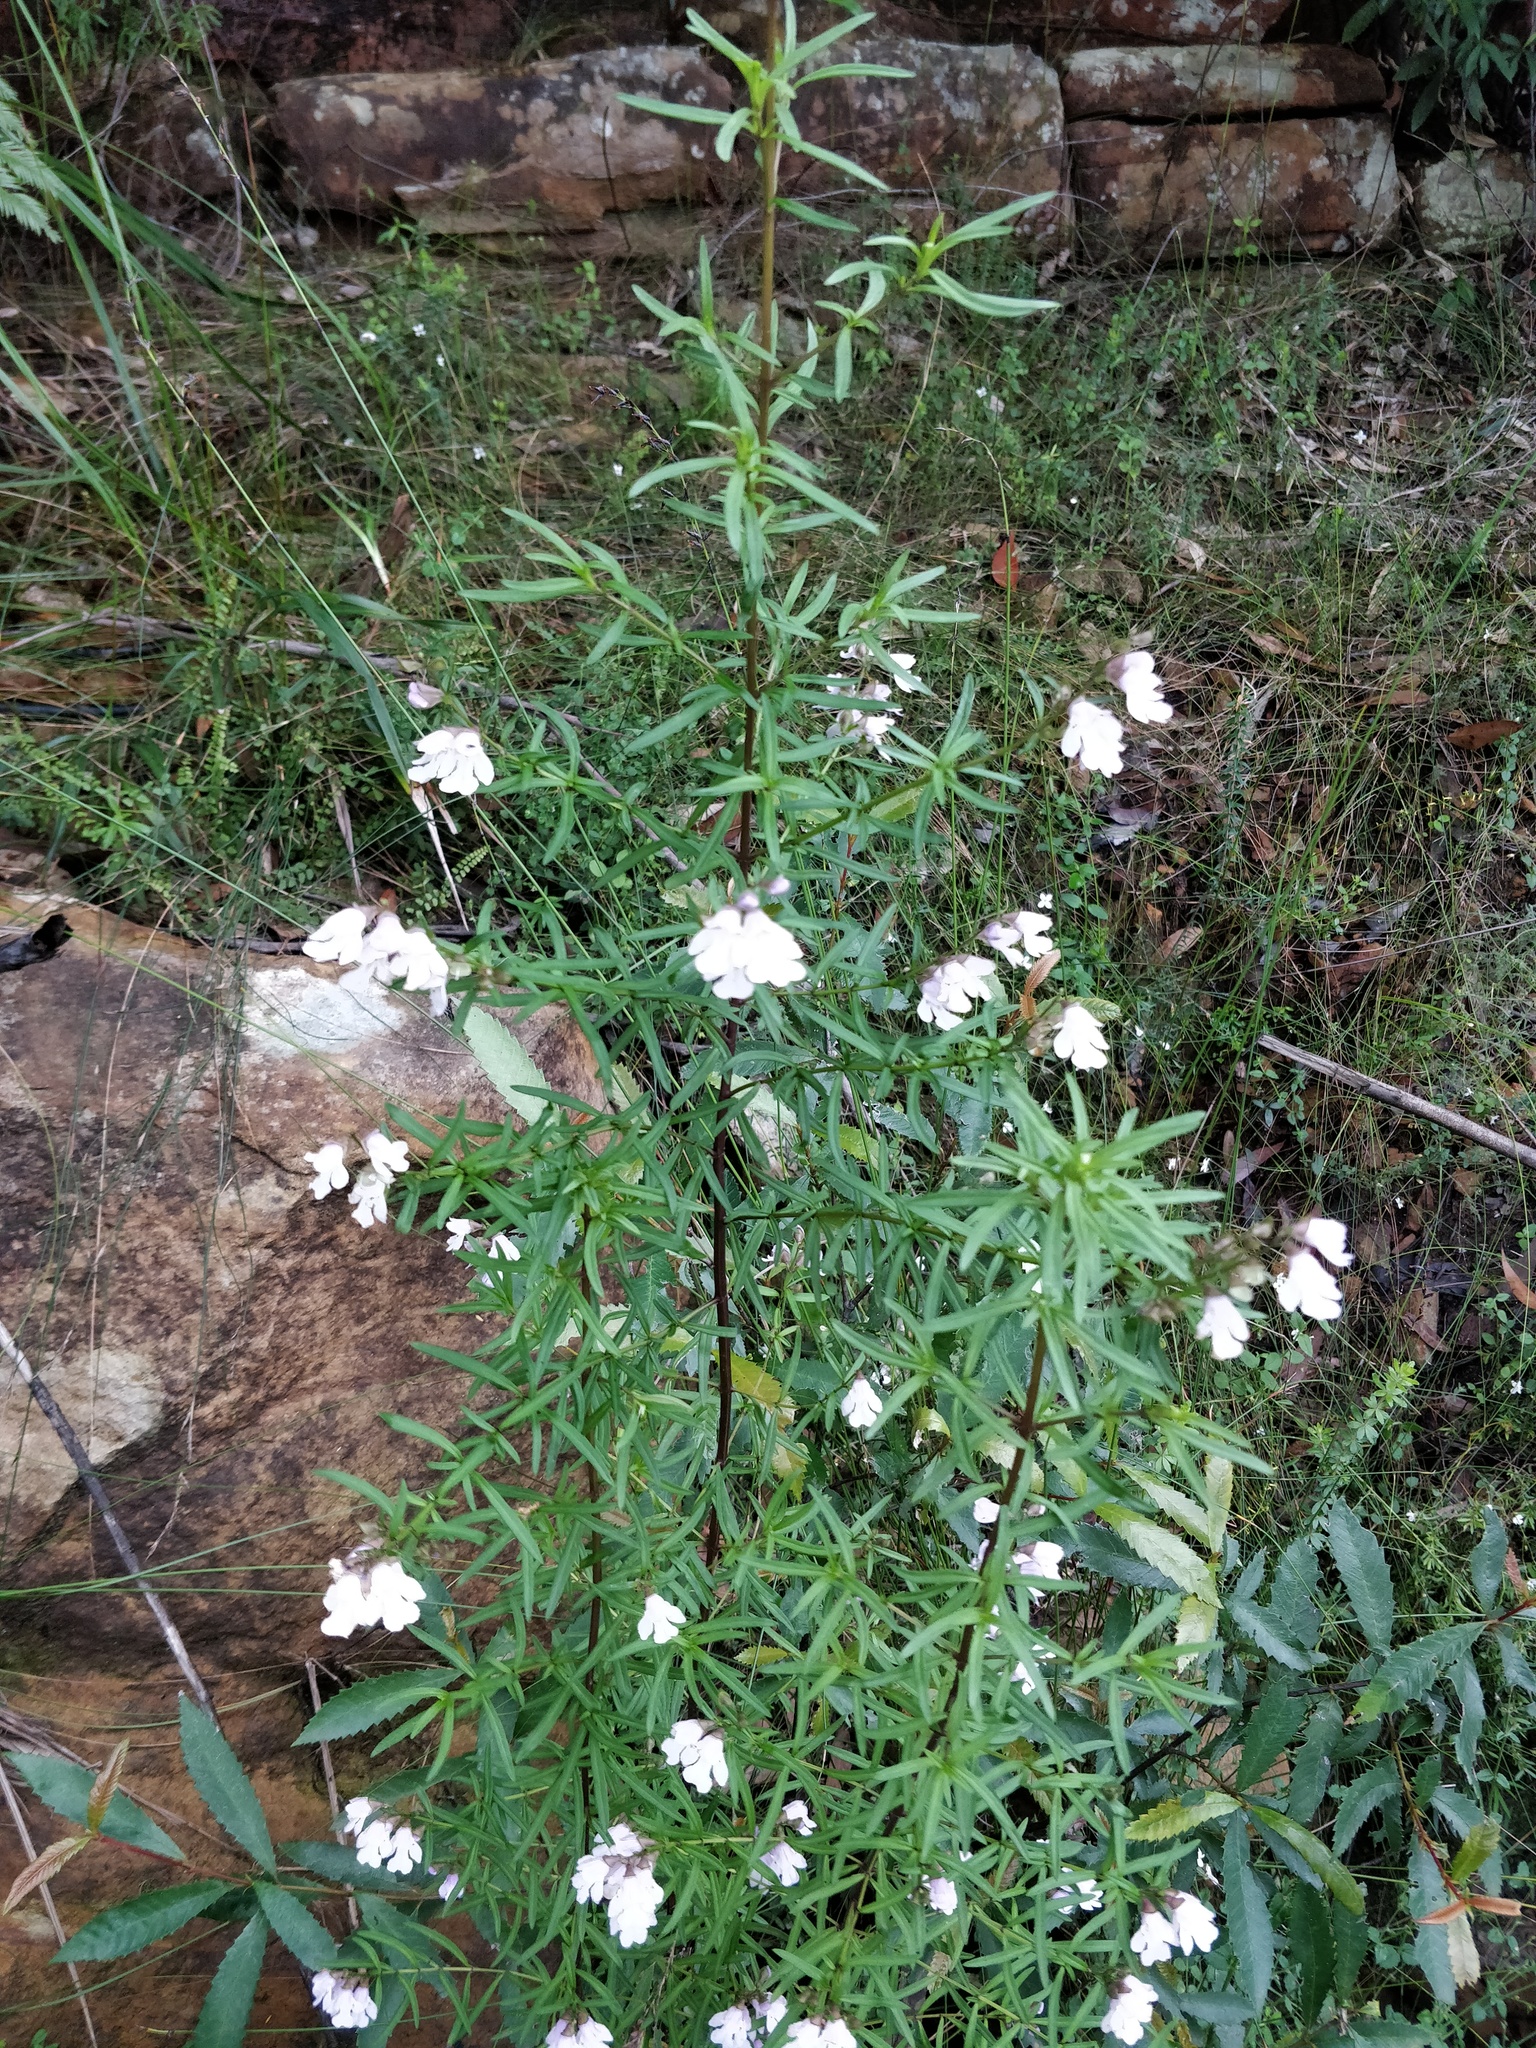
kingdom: Plantae
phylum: Tracheophyta
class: Magnoliopsida
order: Lamiales
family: Lamiaceae
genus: Prostanthera
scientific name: Prostanthera linearis
